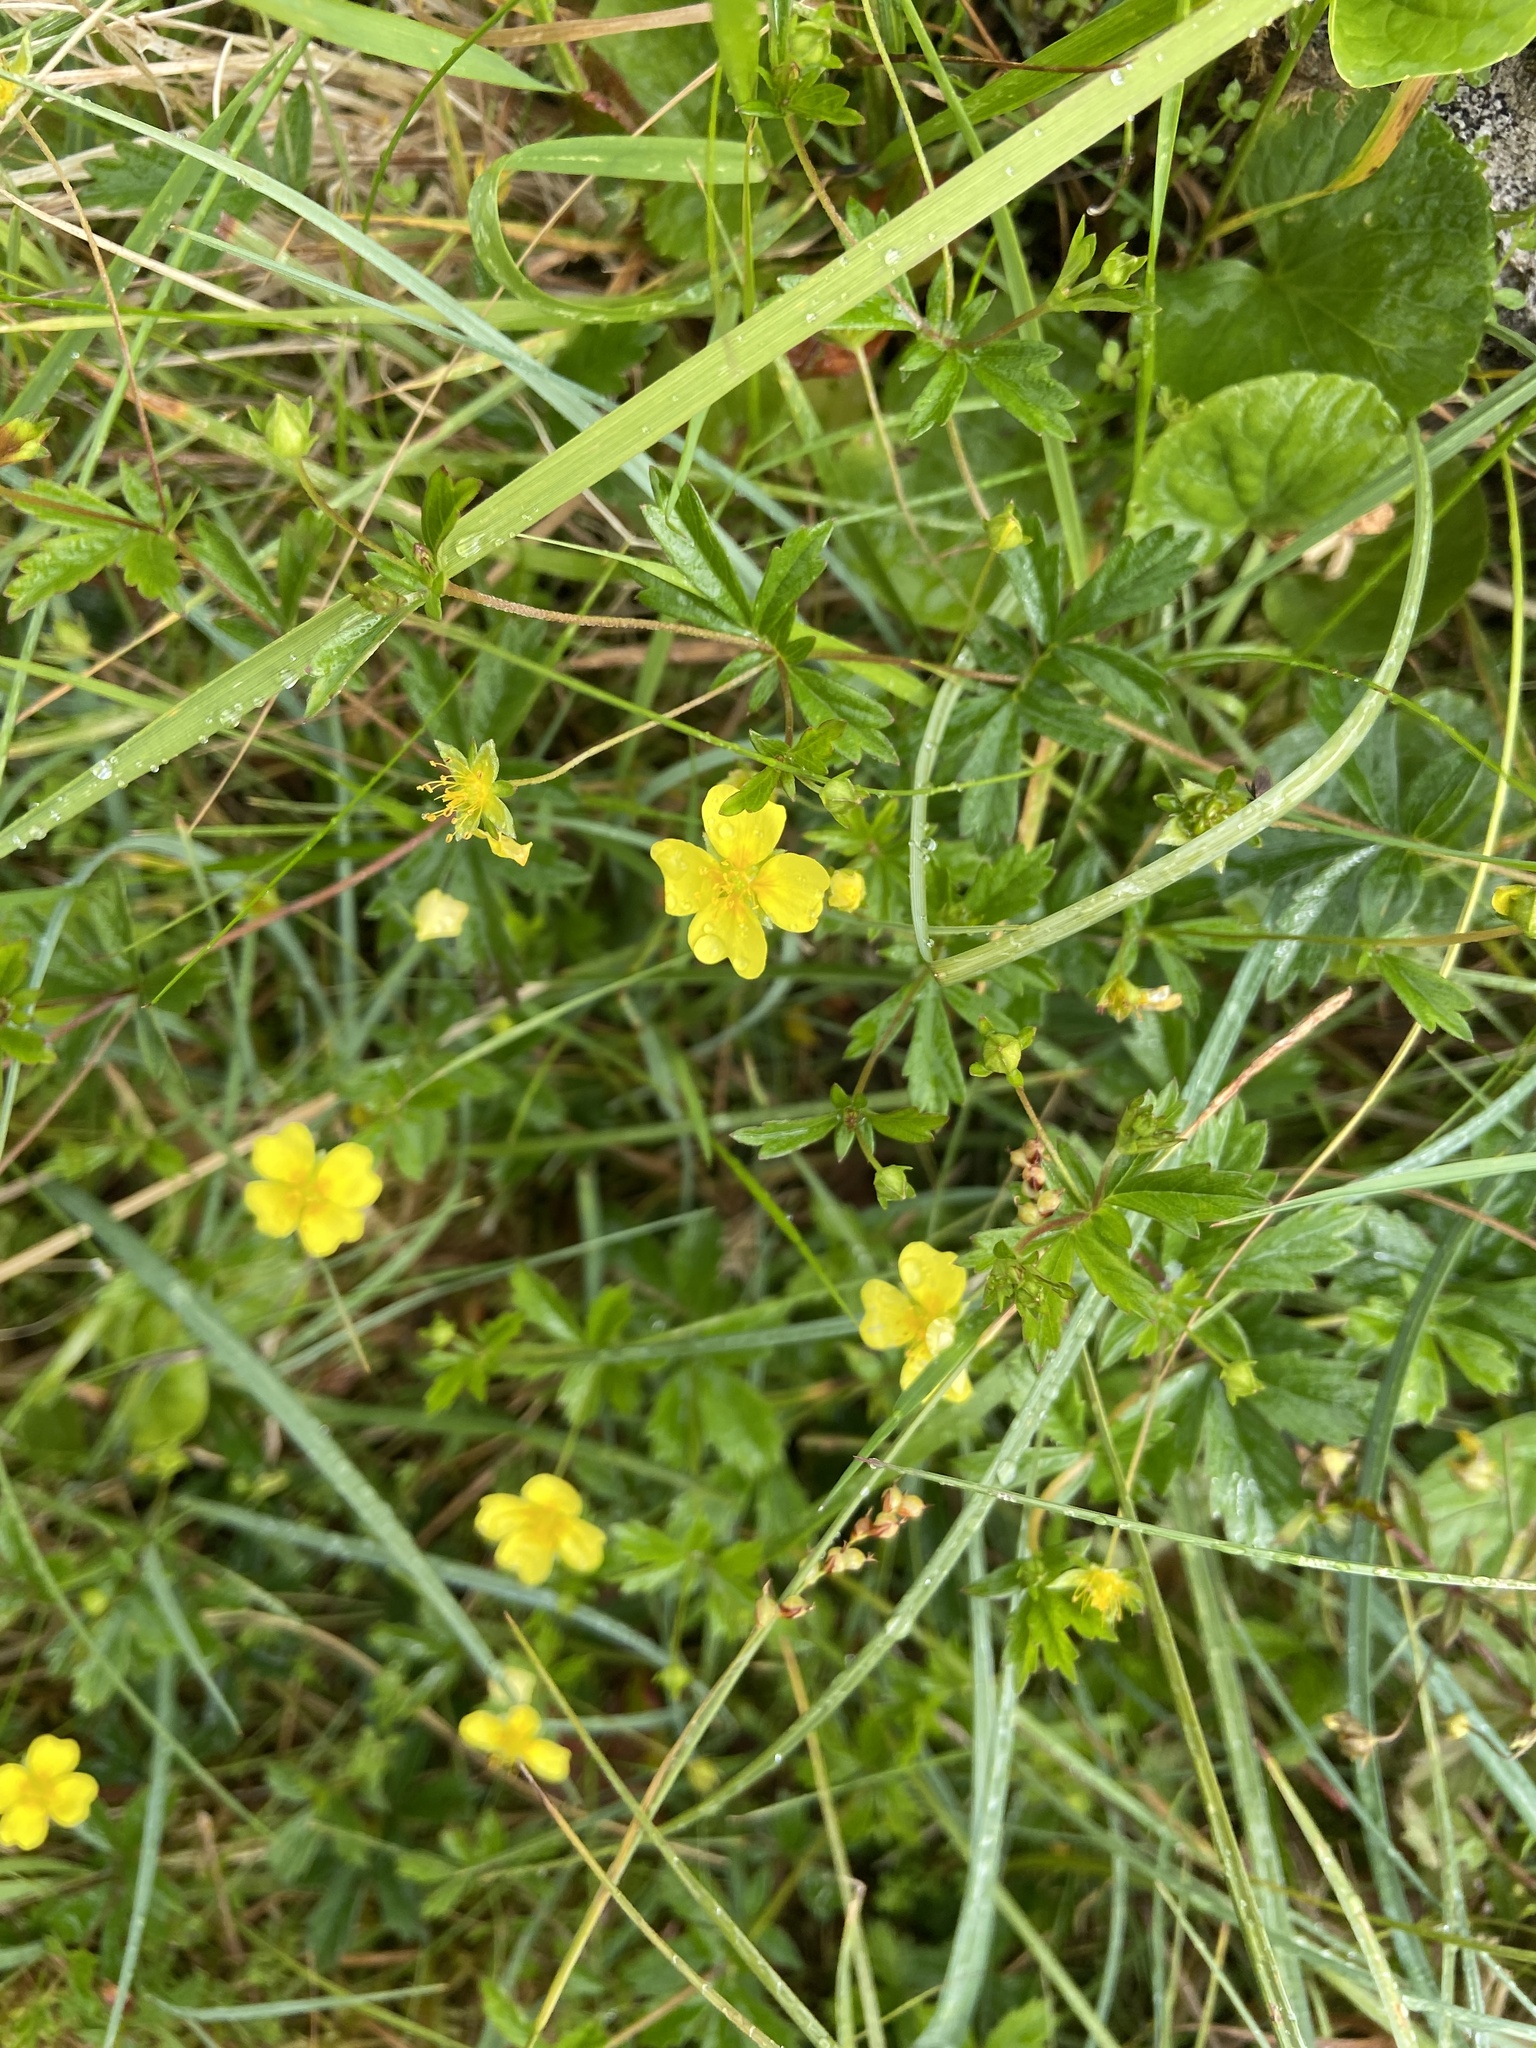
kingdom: Plantae
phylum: Tracheophyta
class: Magnoliopsida
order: Rosales
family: Rosaceae
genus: Potentilla
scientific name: Potentilla erecta
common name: Tormentil
